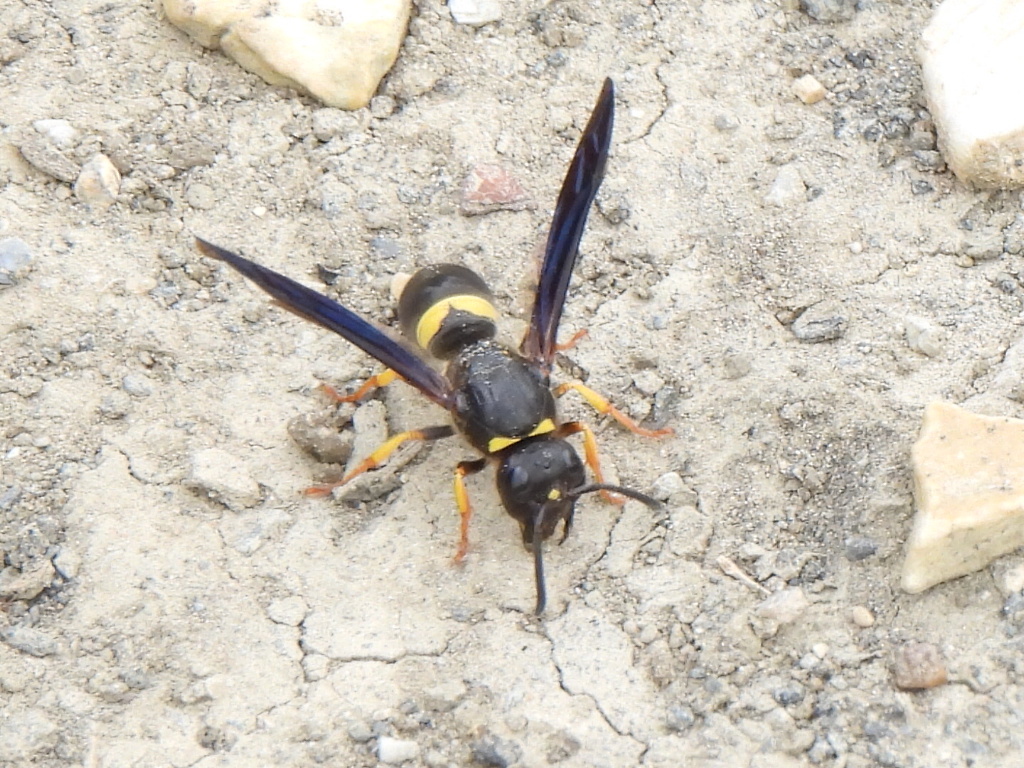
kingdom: Animalia
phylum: Arthropoda
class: Insecta
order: Hymenoptera
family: Vespidae
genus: Ancistrocerus
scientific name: Ancistrocerus spinolae
